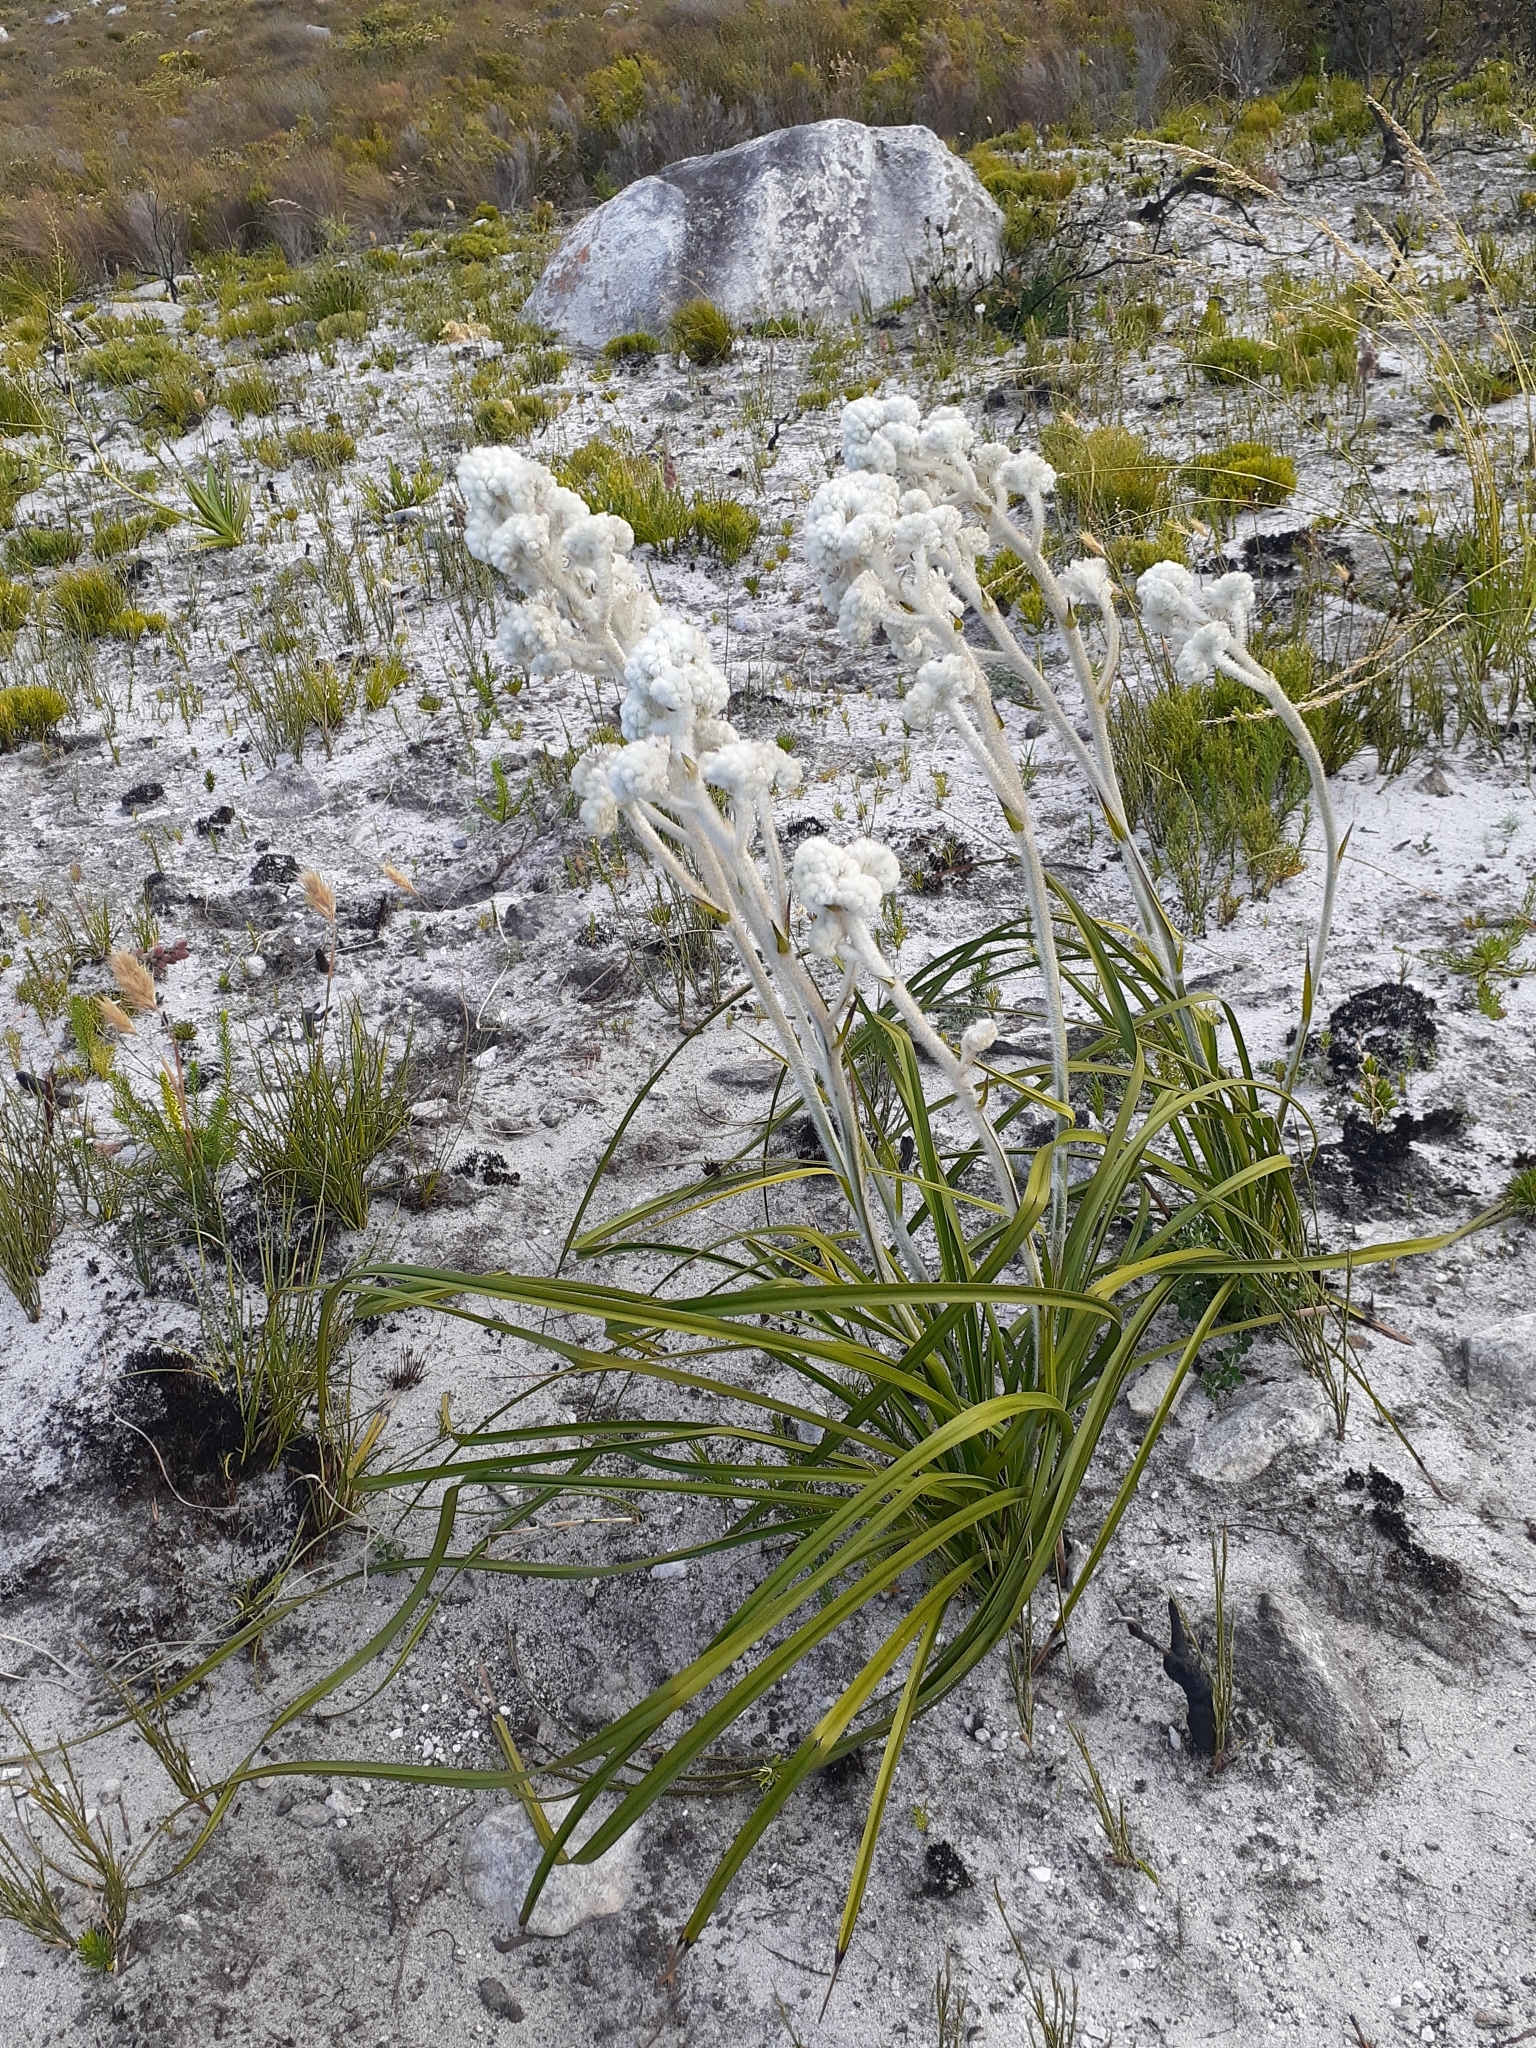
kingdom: Plantae
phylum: Tracheophyta
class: Liliopsida
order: Asparagales
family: Lanariaceae
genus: Lanaria
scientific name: Lanaria lanata
